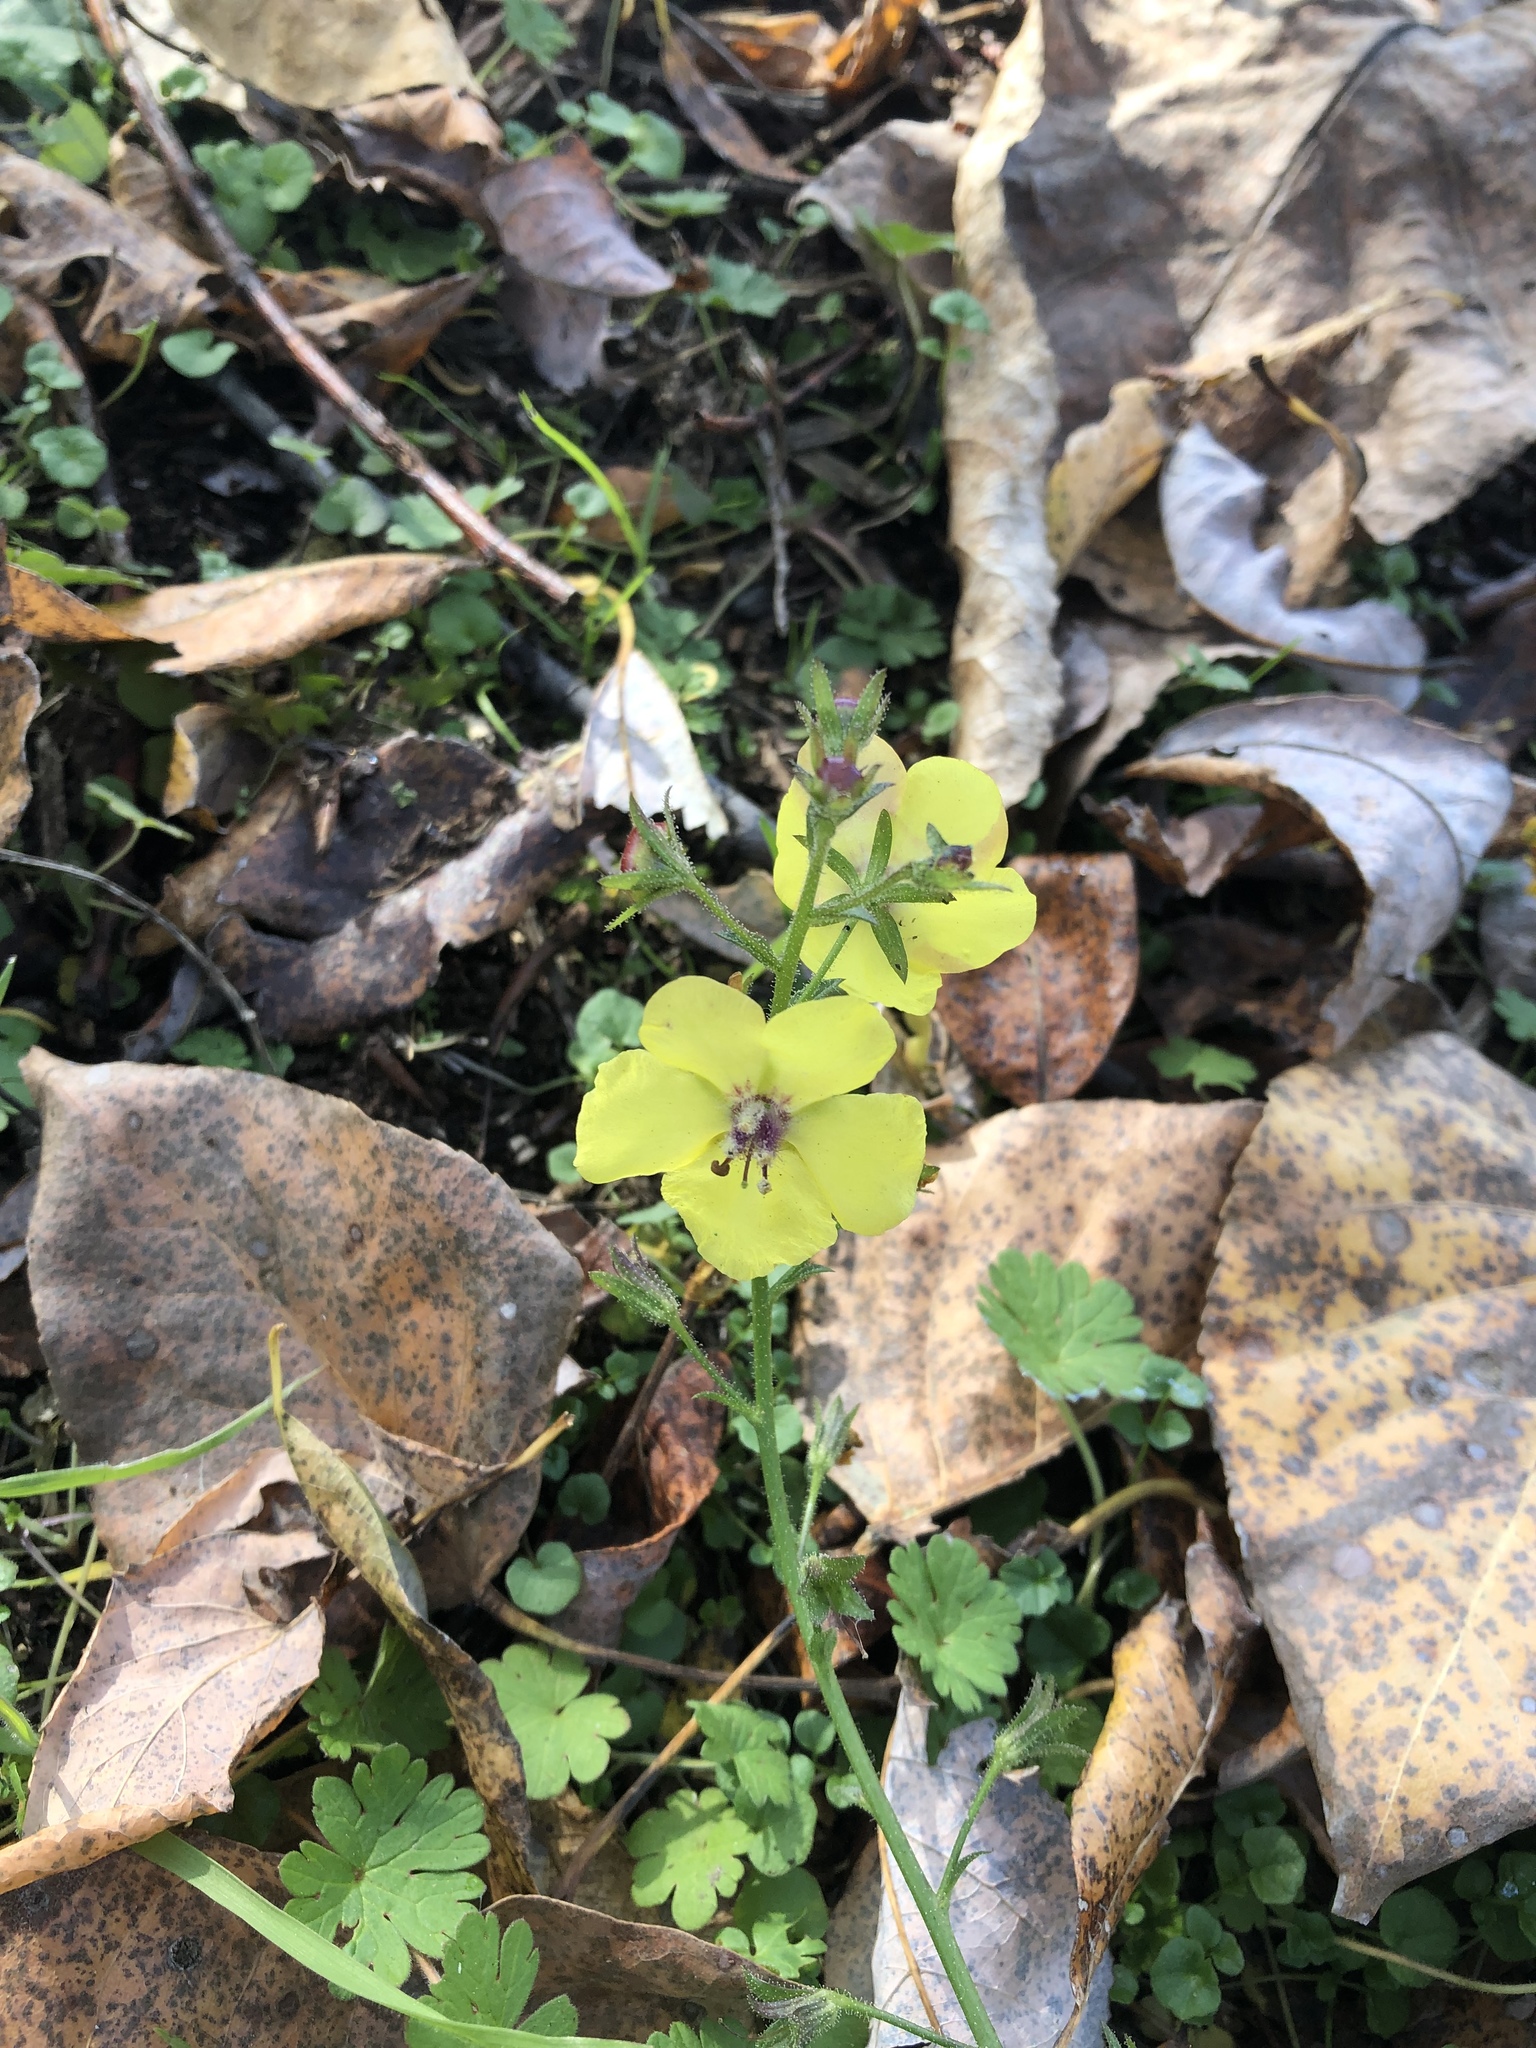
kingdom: Plantae
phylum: Tracheophyta
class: Magnoliopsida
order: Lamiales
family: Scrophulariaceae
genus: Verbascum
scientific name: Verbascum blattaria
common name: Moth mullein
